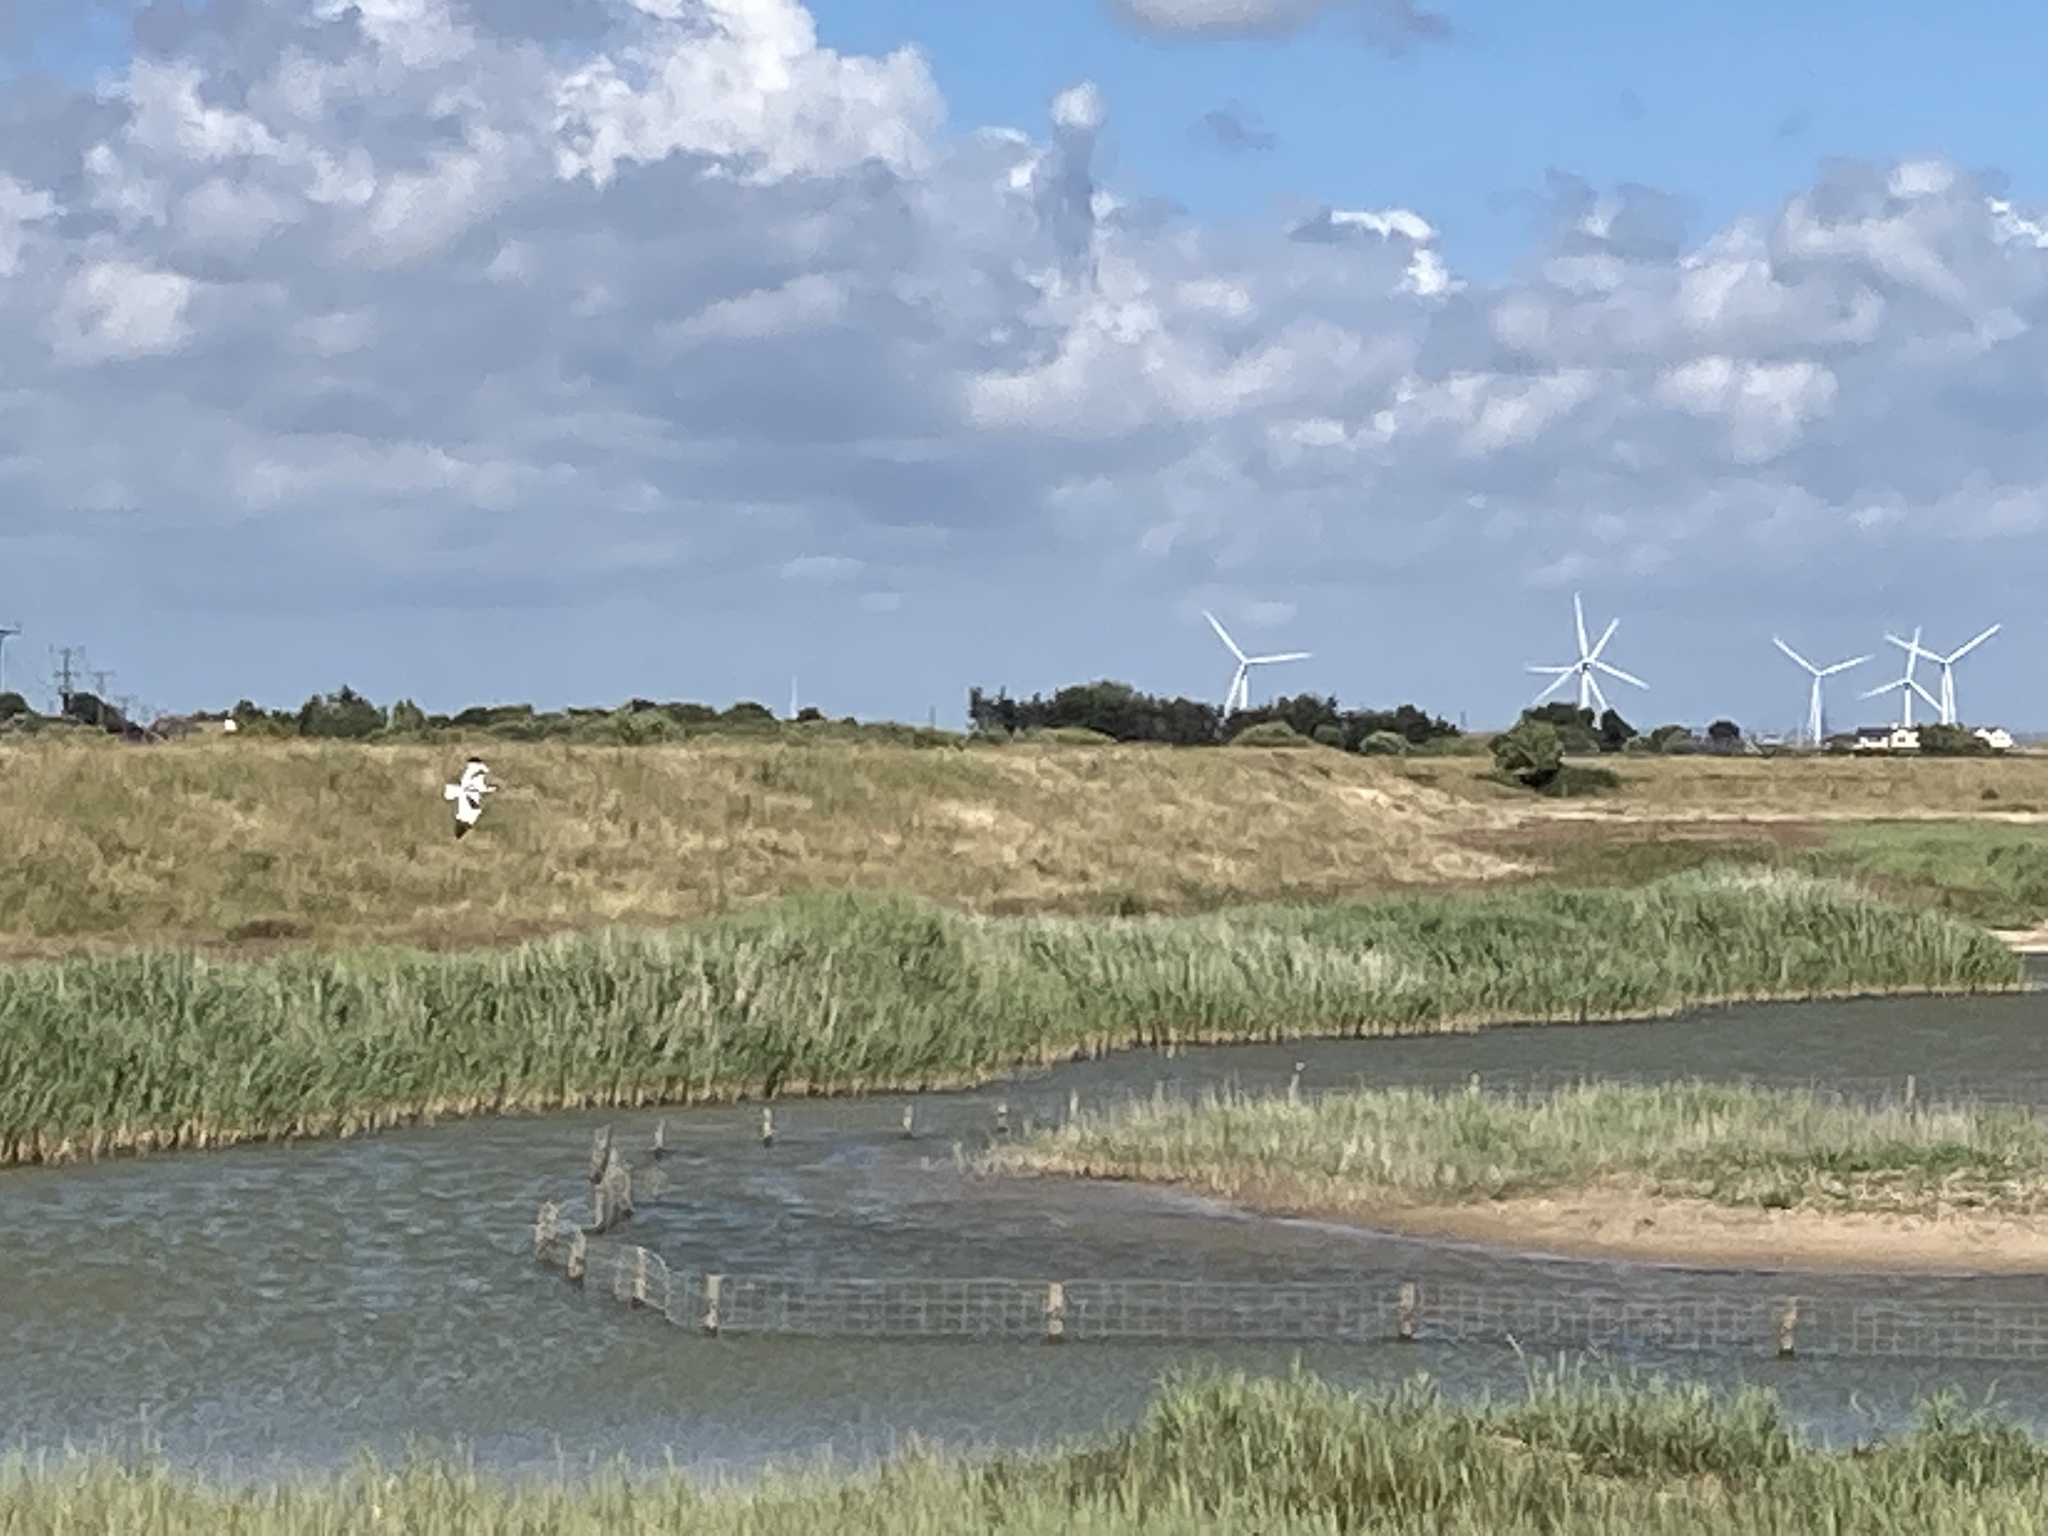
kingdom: Animalia
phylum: Chordata
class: Aves
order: Charadriiformes
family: Recurvirostridae
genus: Recurvirostra
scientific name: Recurvirostra avosetta
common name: Pied avocet
